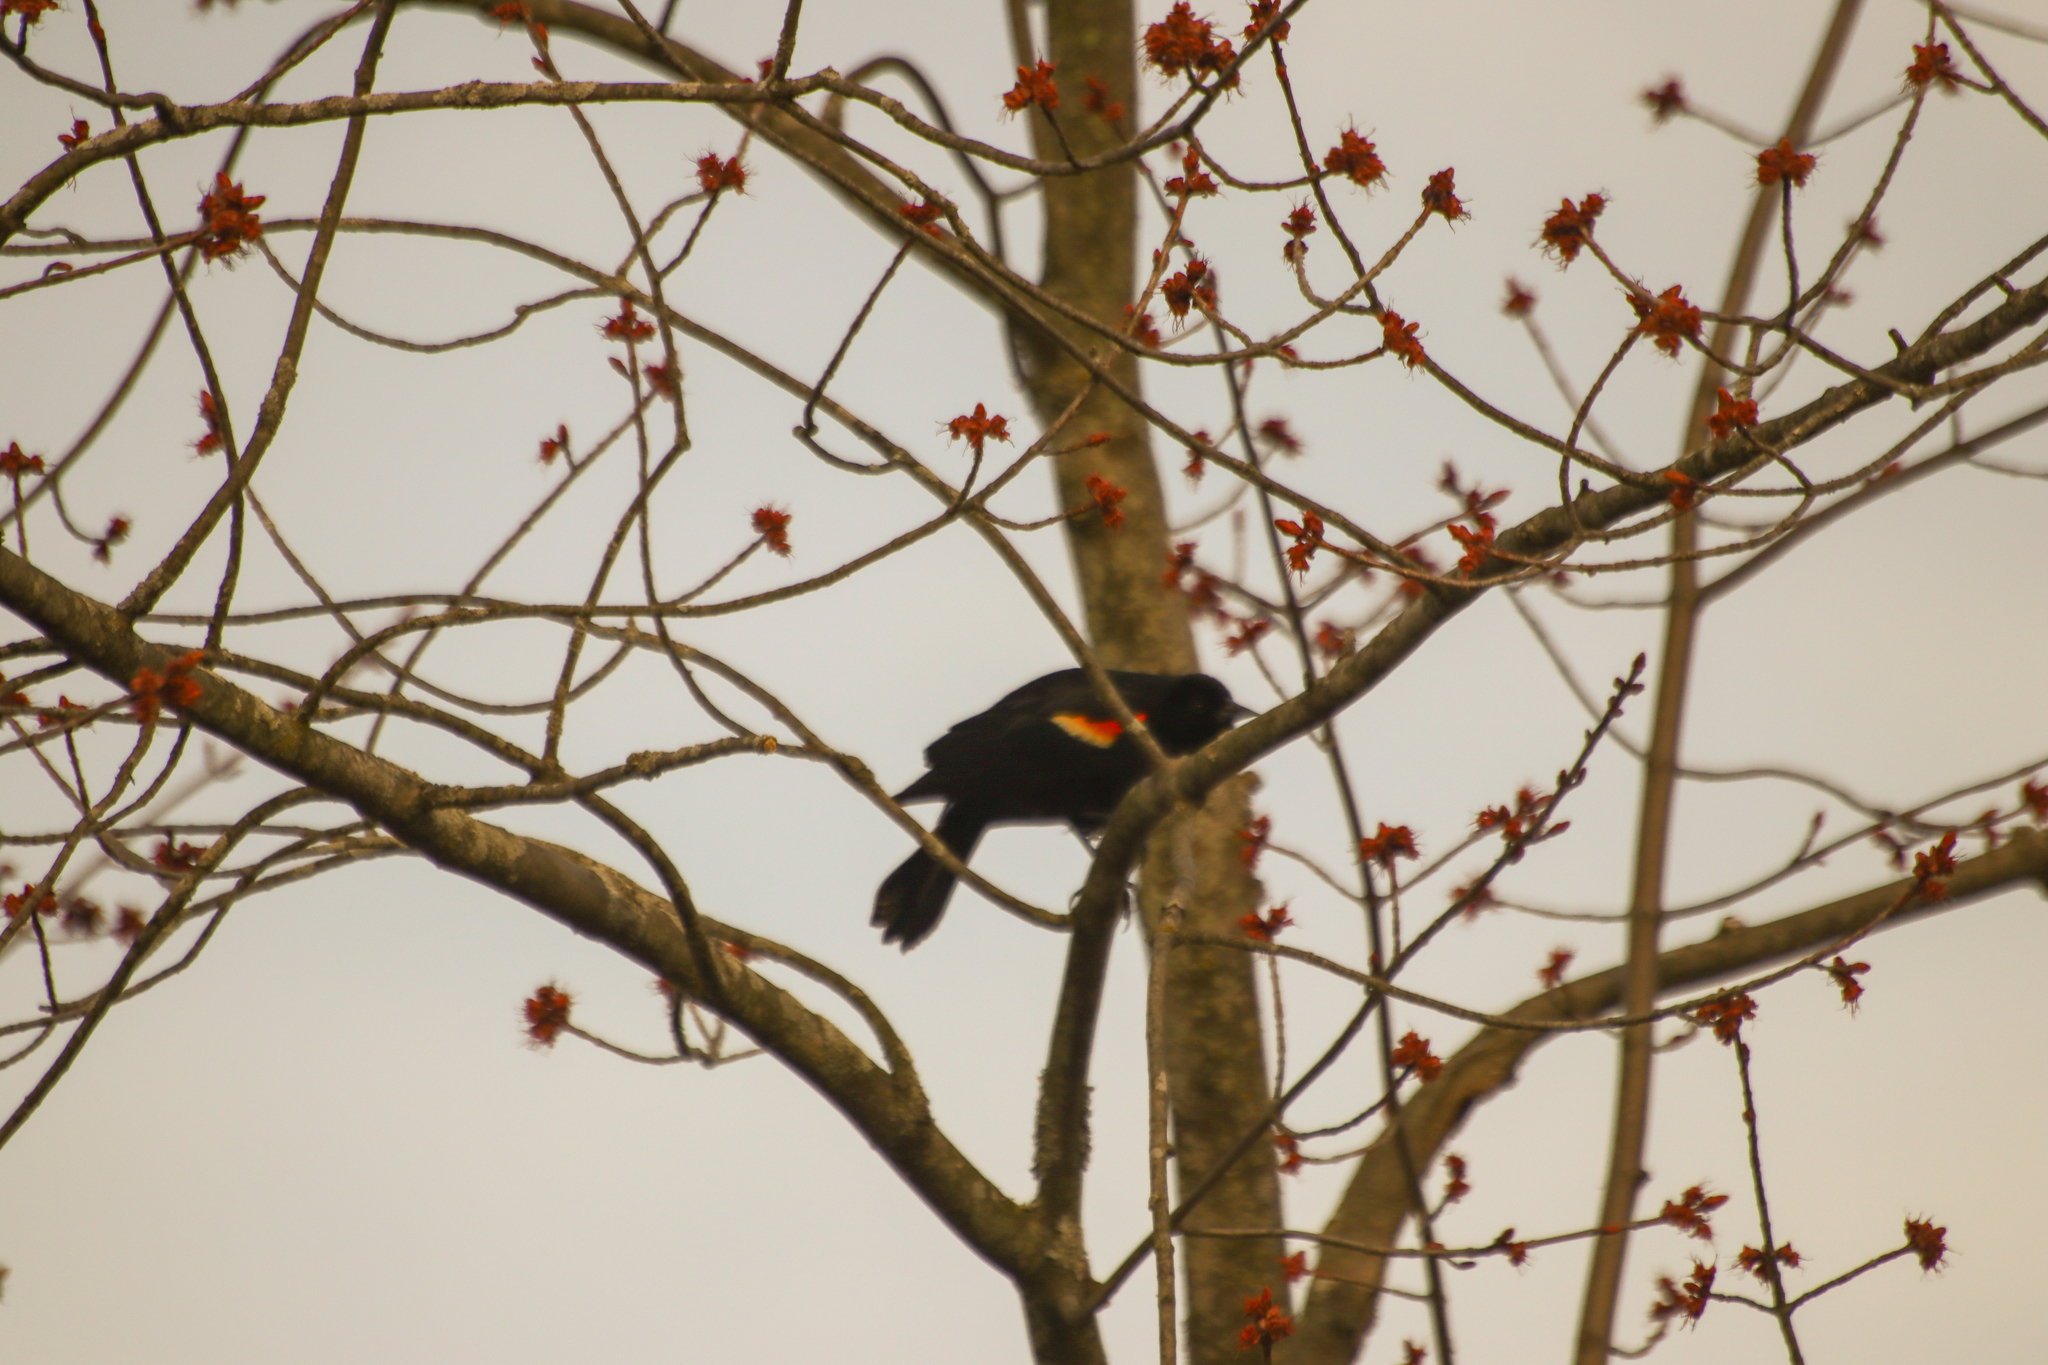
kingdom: Animalia
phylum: Chordata
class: Aves
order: Passeriformes
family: Icteridae
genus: Agelaius
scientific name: Agelaius phoeniceus
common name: Red-winged blackbird
